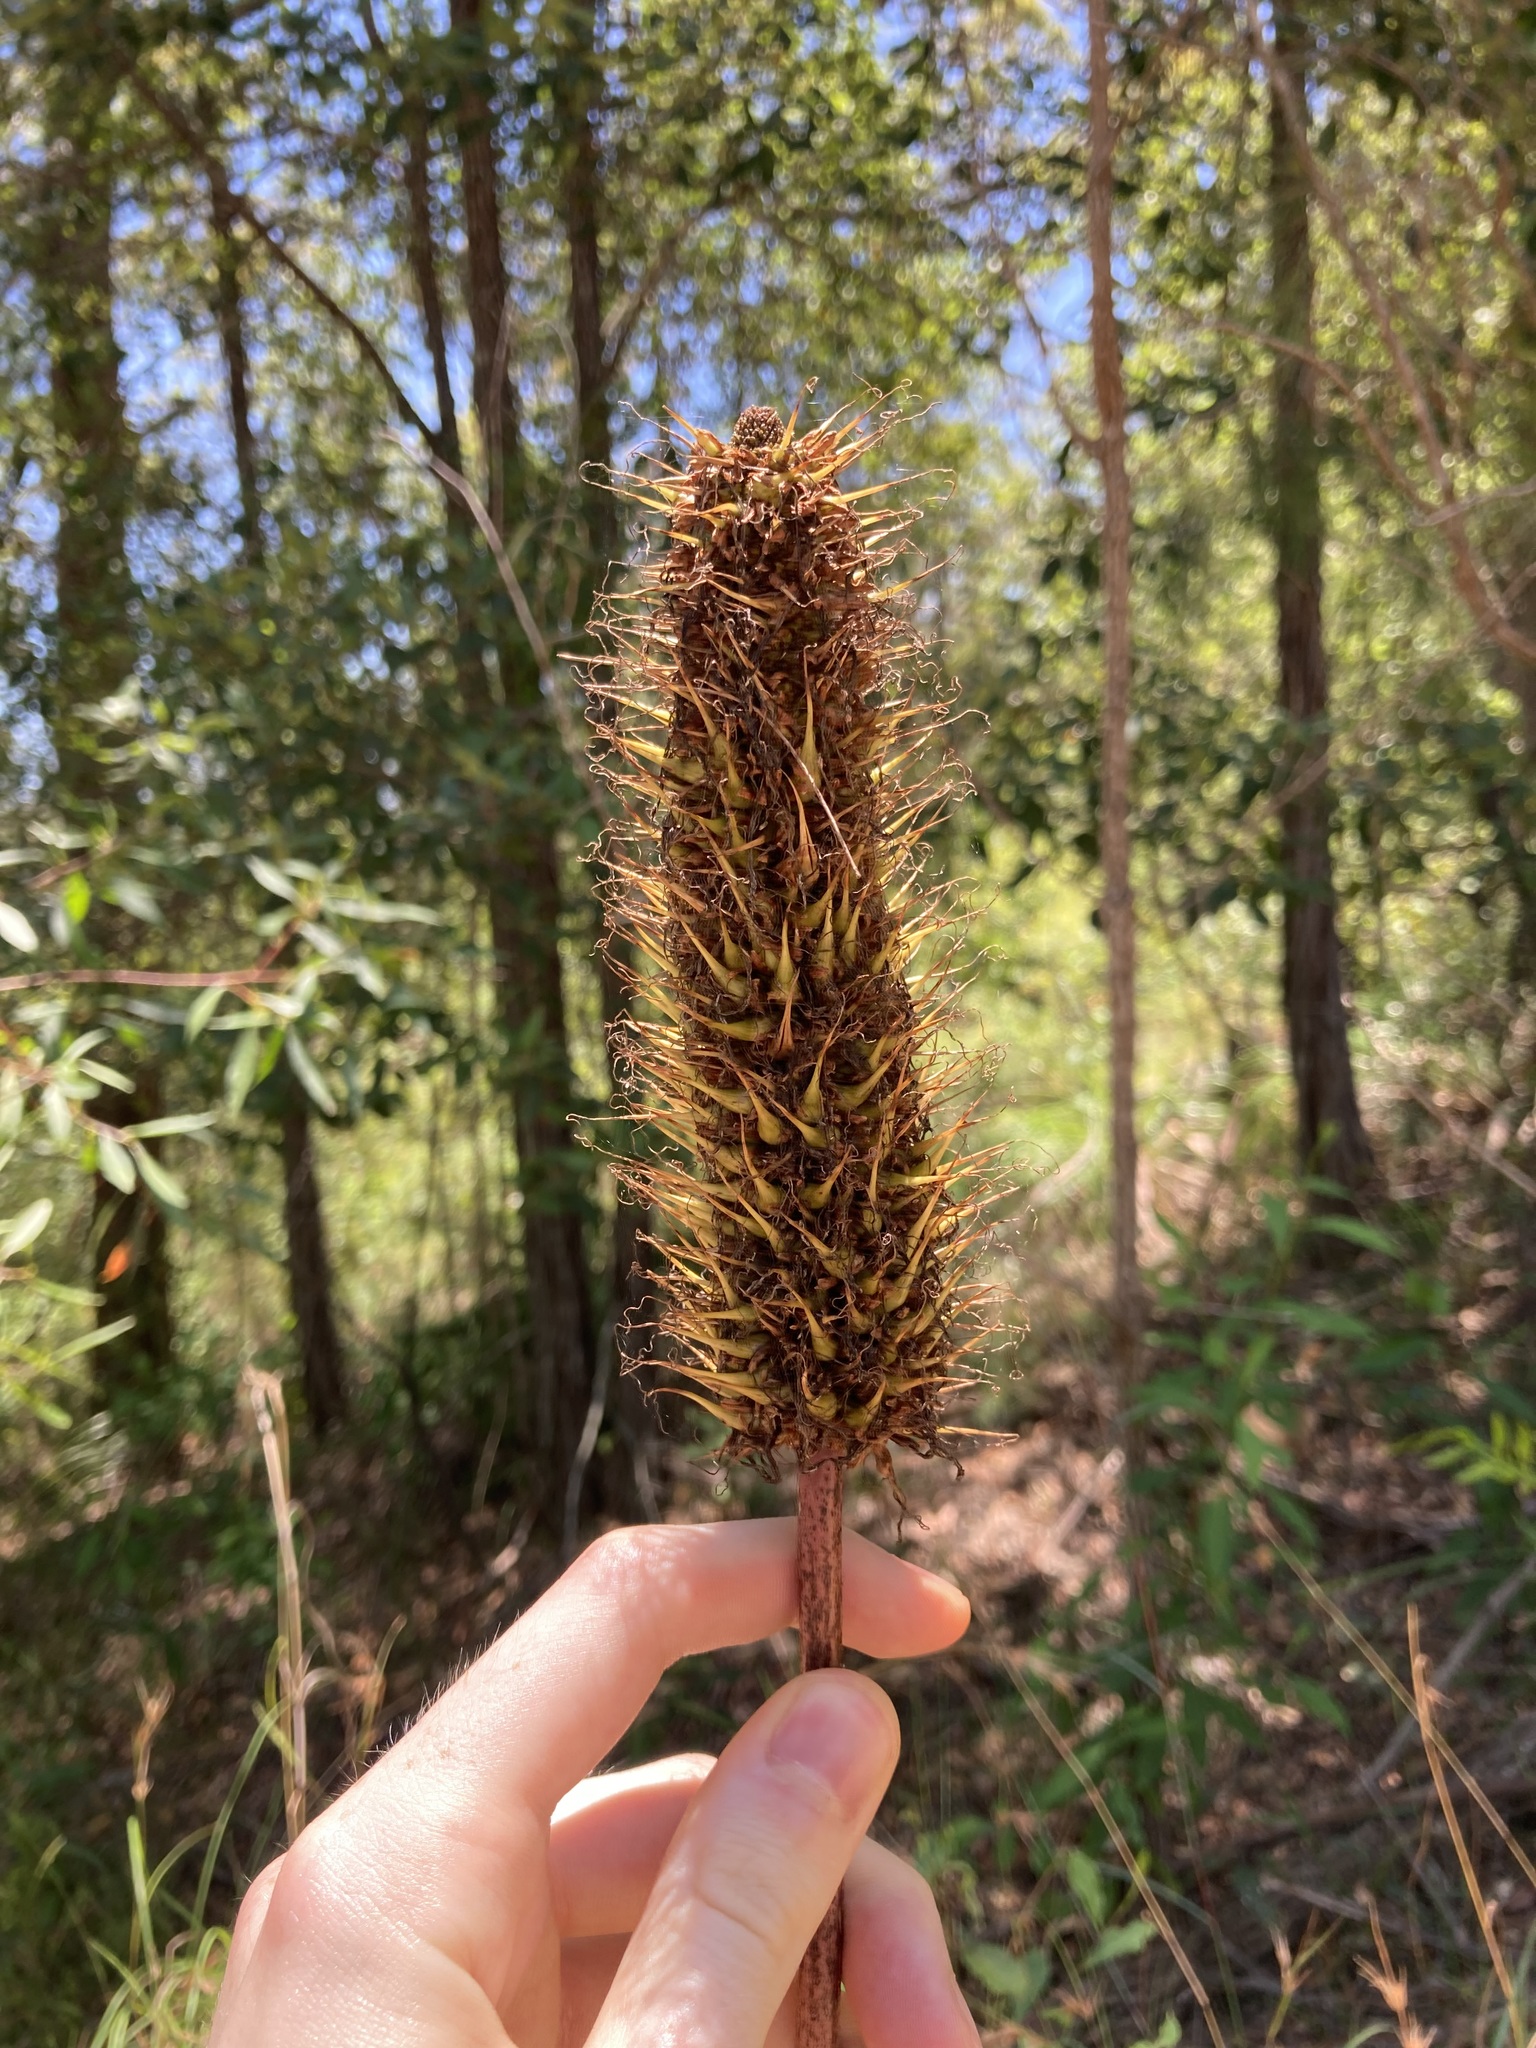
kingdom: Plantae
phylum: Tracheophyta
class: Liliopsida
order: Asparagales
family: Asphodelaceae
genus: Xanthorrhoea
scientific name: Xanthorrhoea macronema
